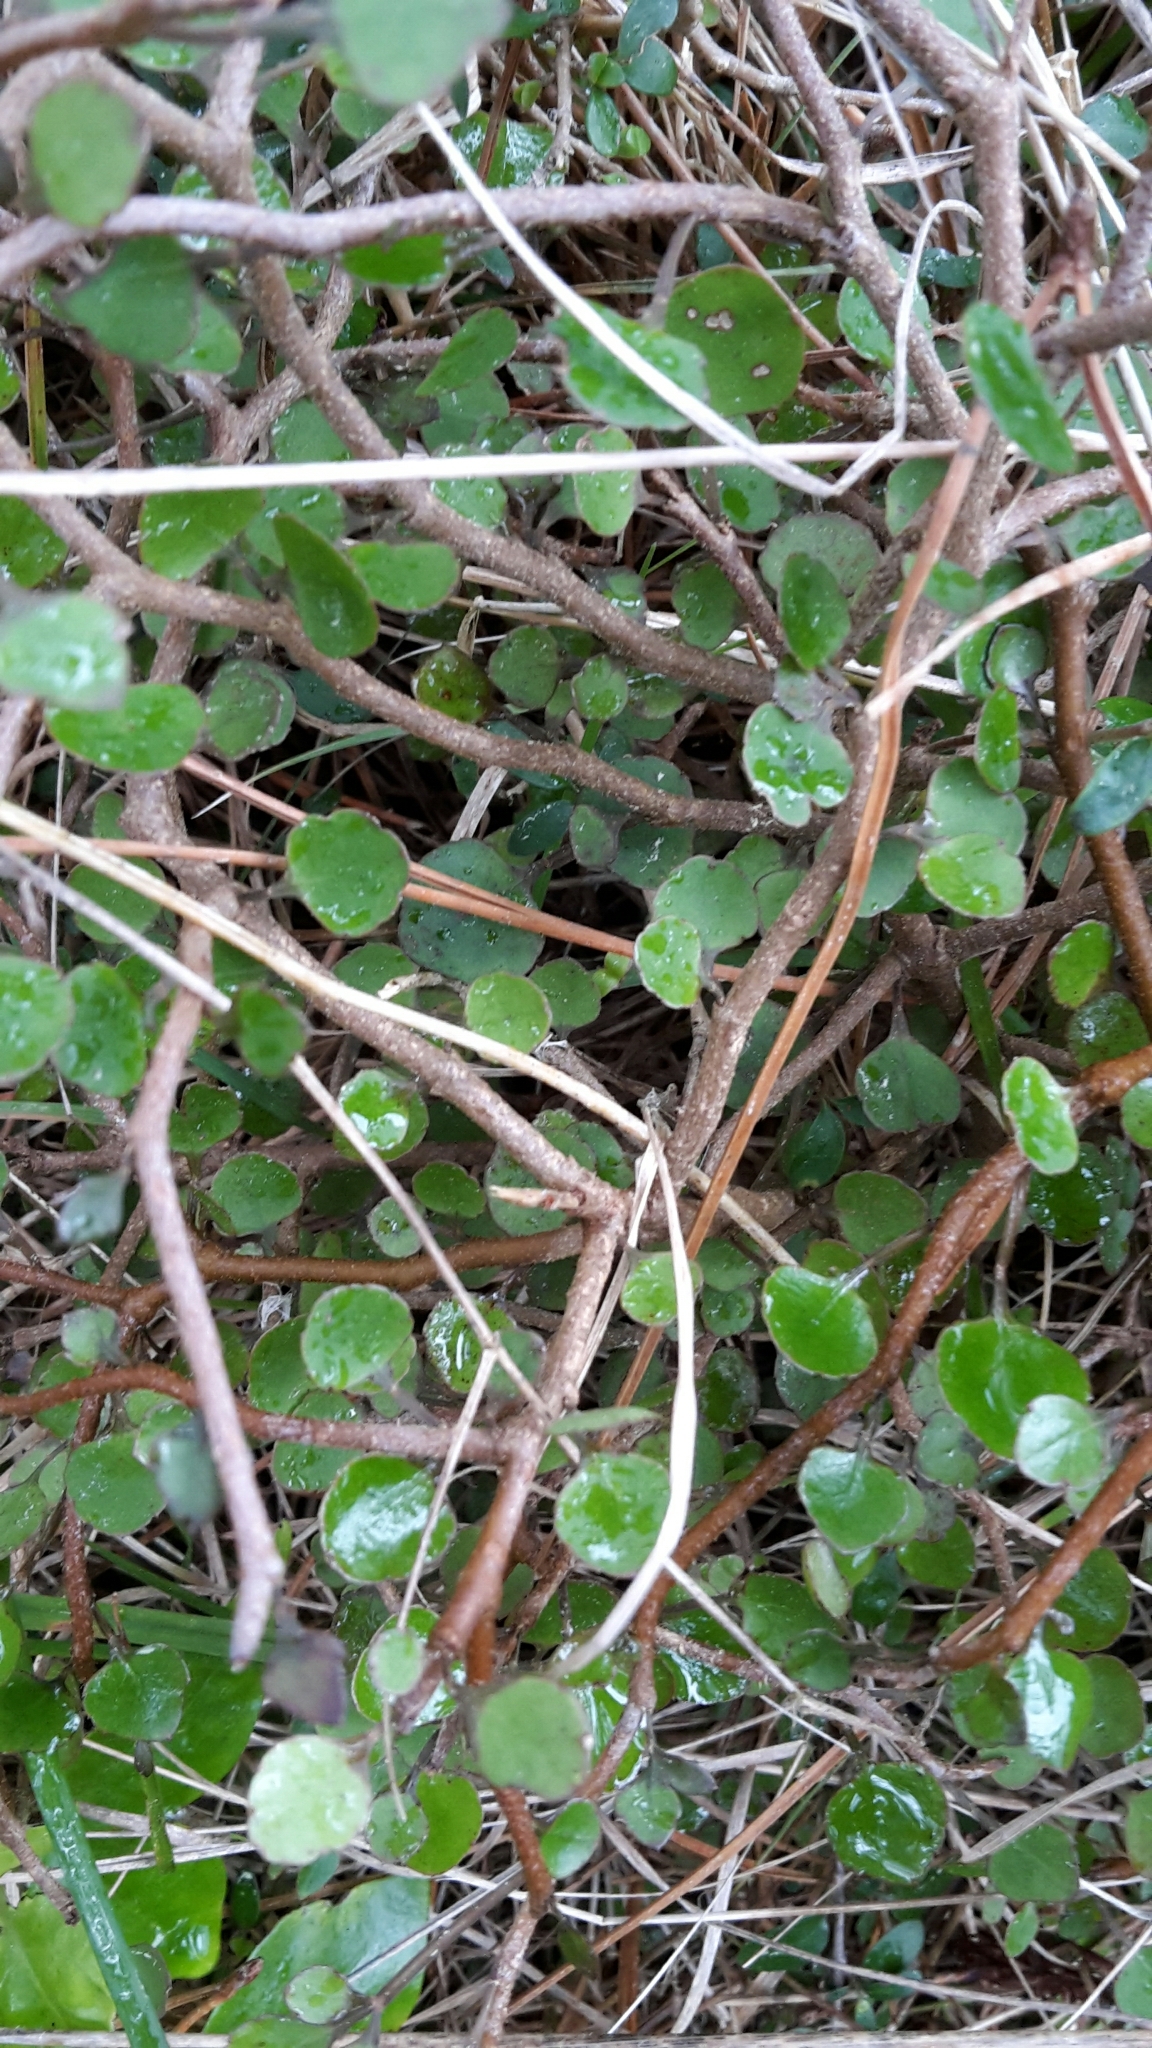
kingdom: Plantae
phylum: Tracheophyta
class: Magnoliopsida
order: Apiales
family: Araliaceae
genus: Raukaua
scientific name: Raukaua anomalus
